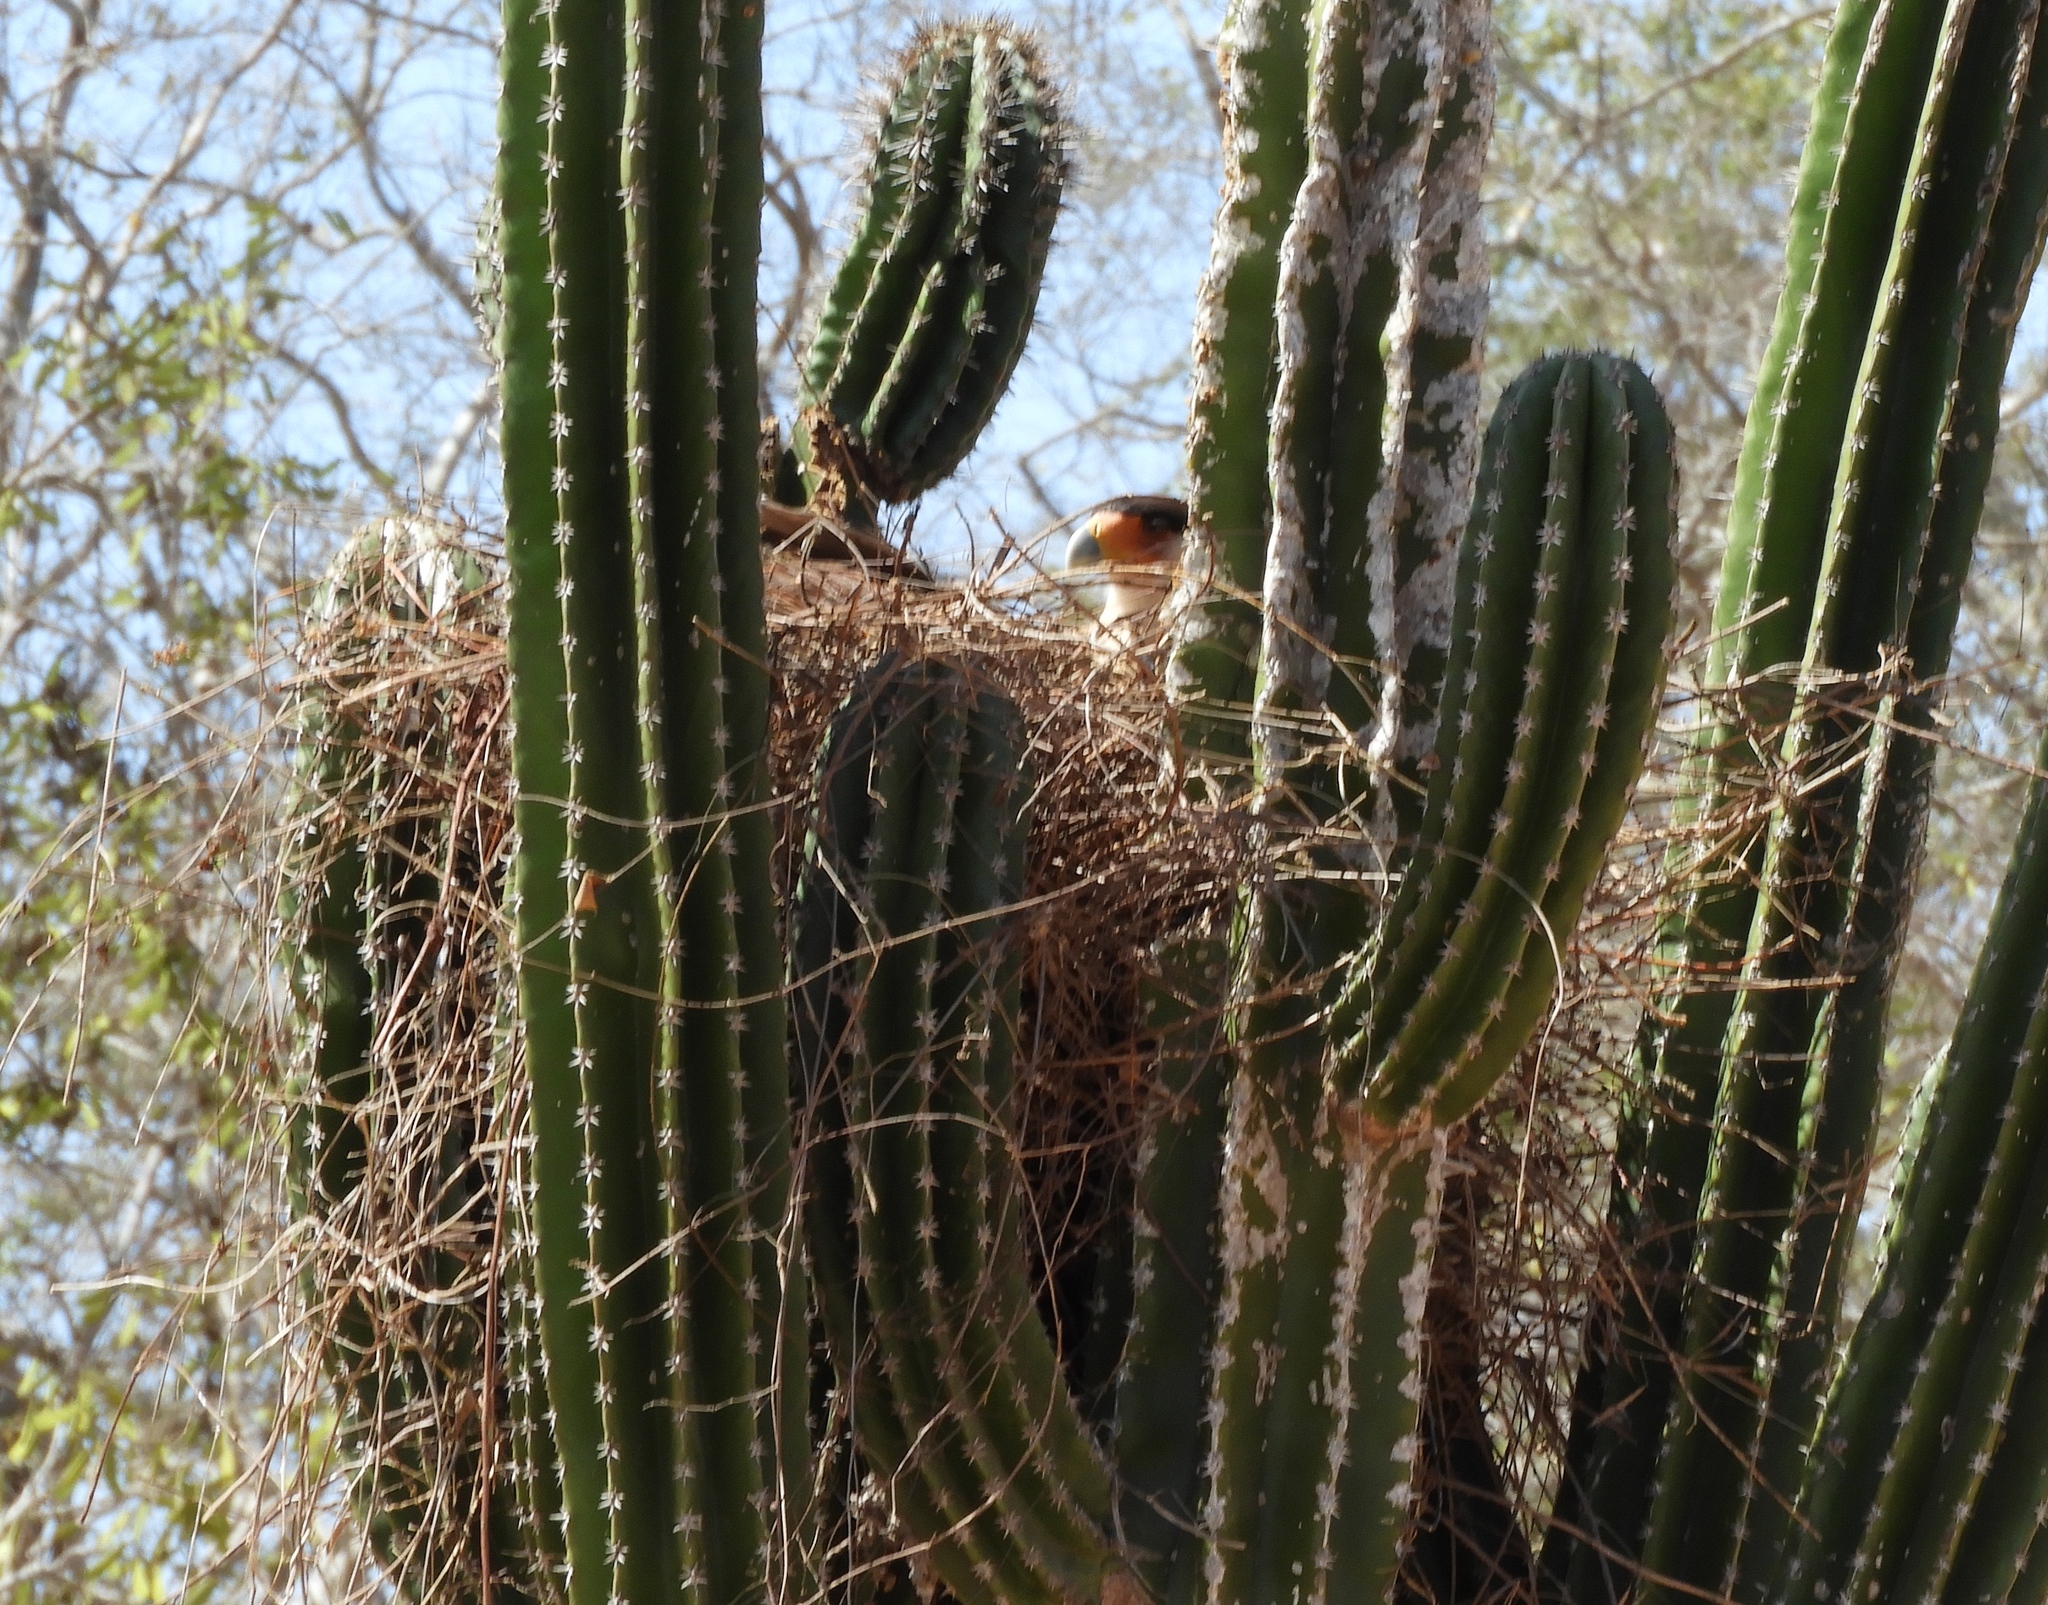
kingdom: Animalia
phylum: Chordata
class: Aves
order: Falconiformes
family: Falconidae
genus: Caracara
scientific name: Caracara plancus
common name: Southern caracara
